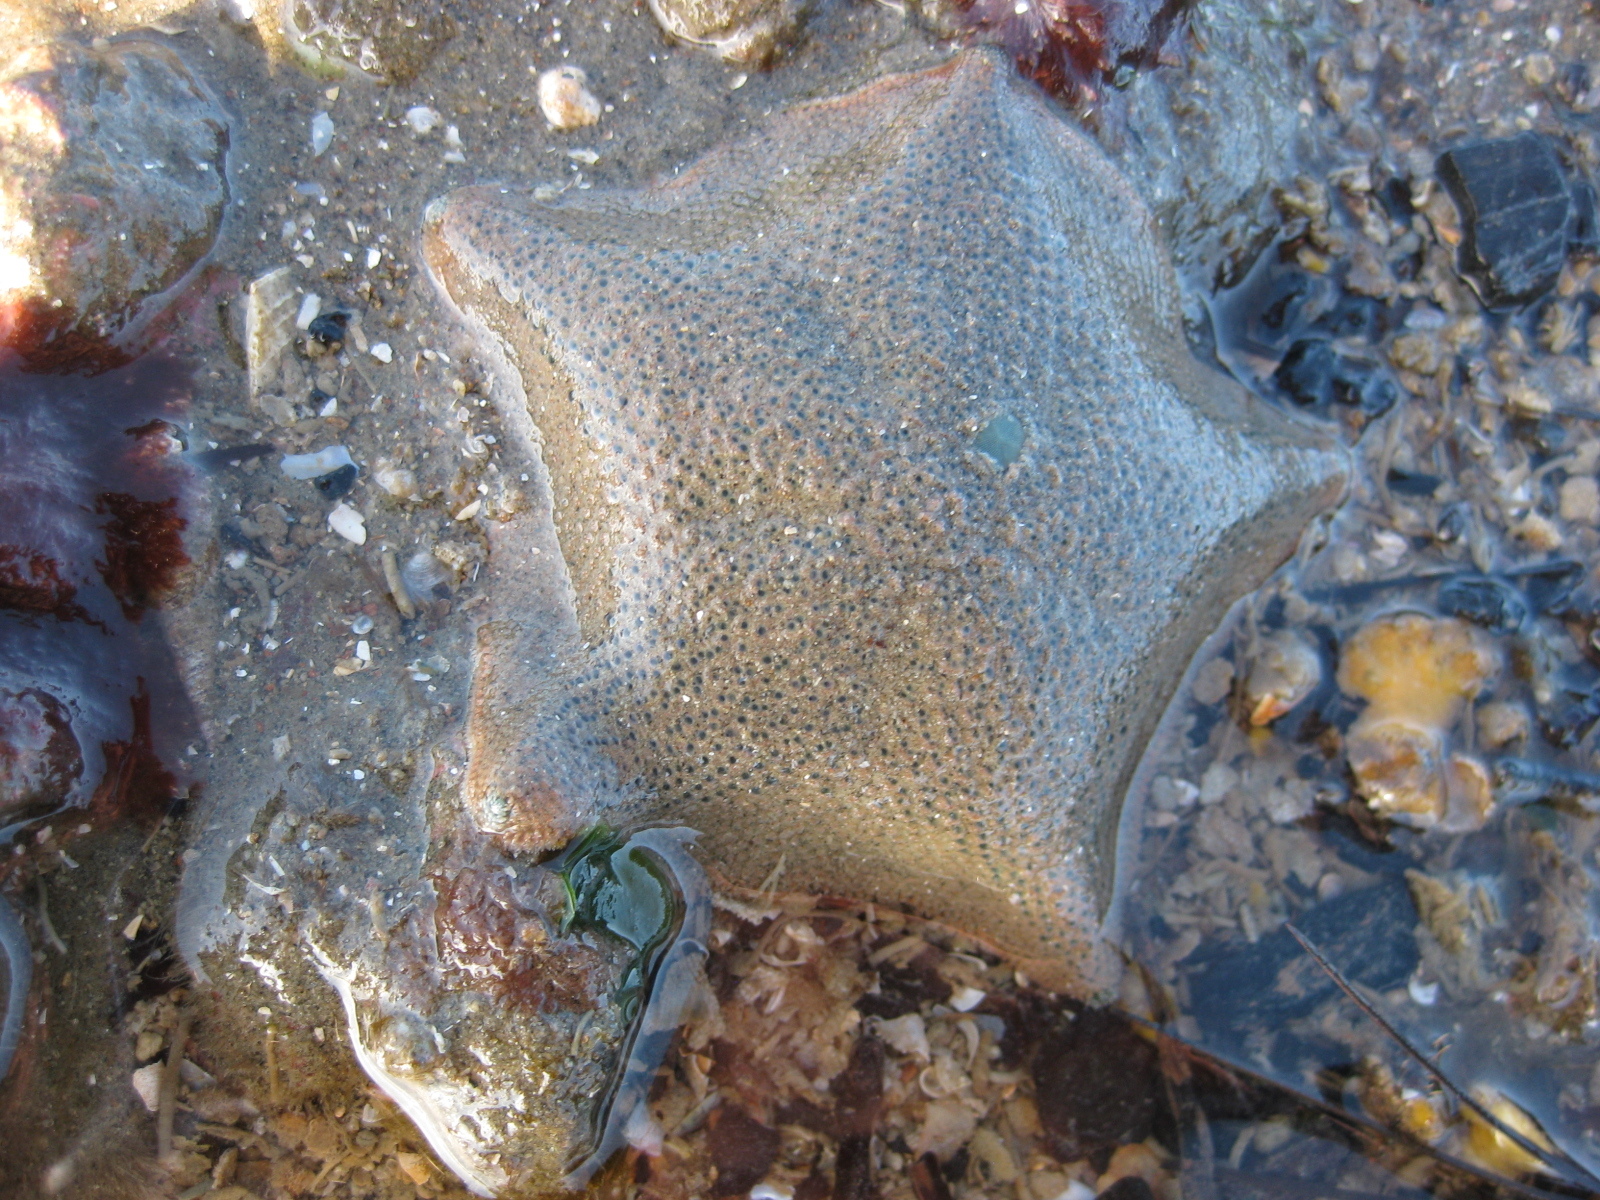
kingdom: Animalia
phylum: Echinodermata
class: Asteroidea
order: Valvatida
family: Asterinidae
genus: Patiriella
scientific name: Patiriella regularis
